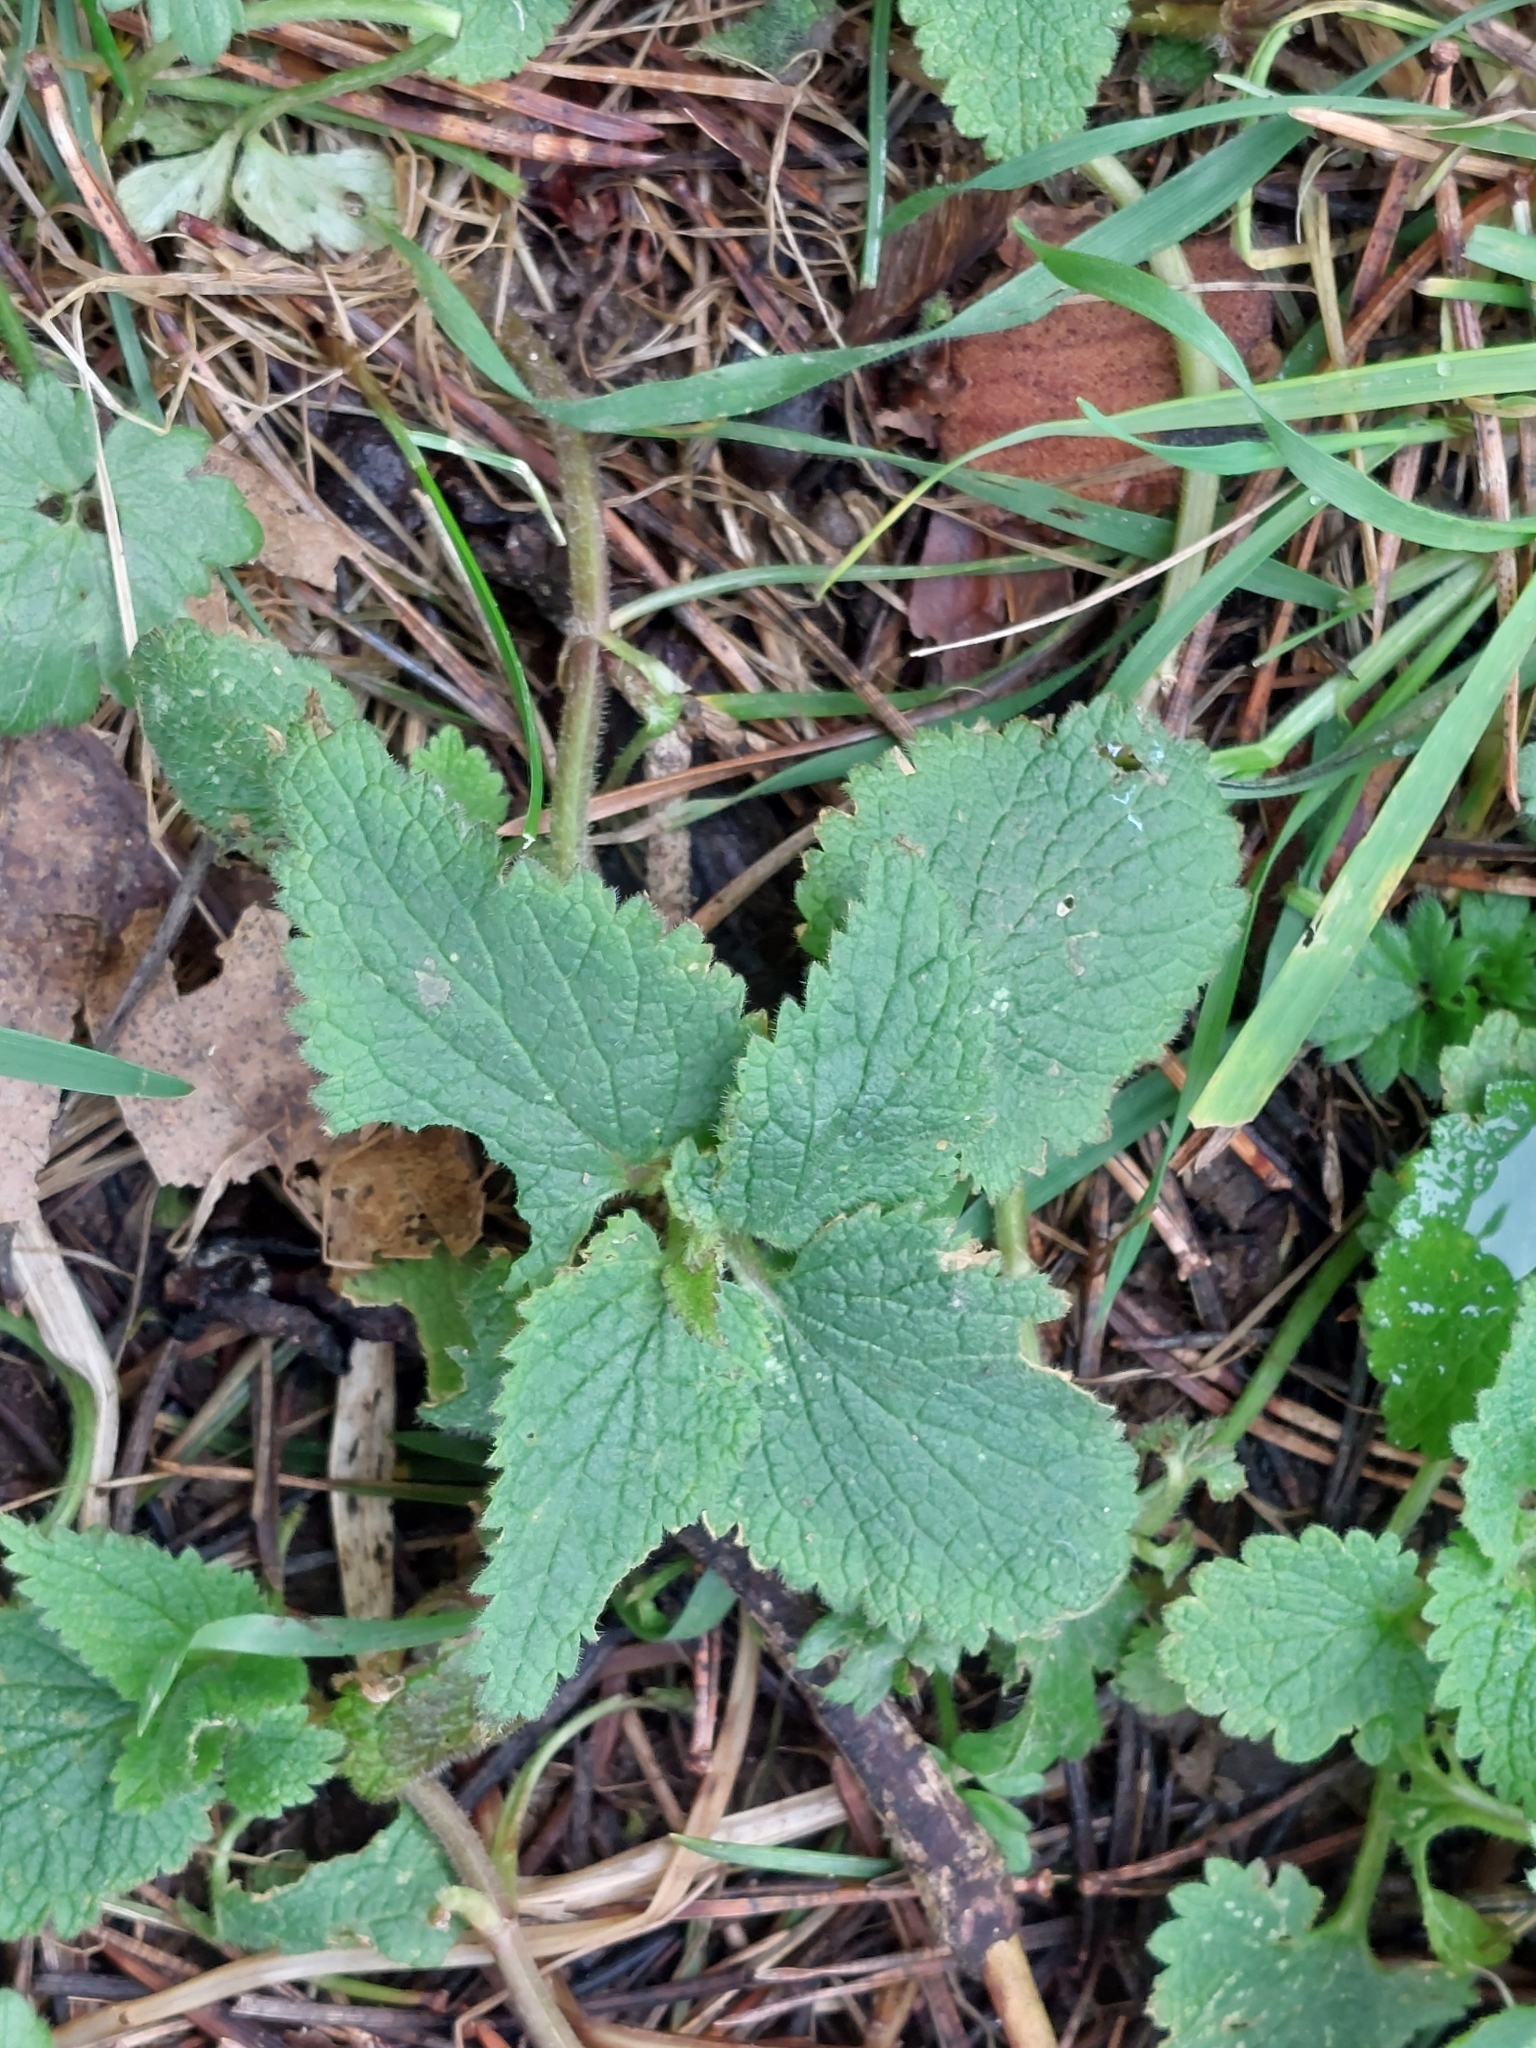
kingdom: Plantae
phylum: Tracheophyta
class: Magnoliopsida
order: Lamiales
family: Lamiaceae
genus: Lamium
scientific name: Lamium album
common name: White dead-nettle
